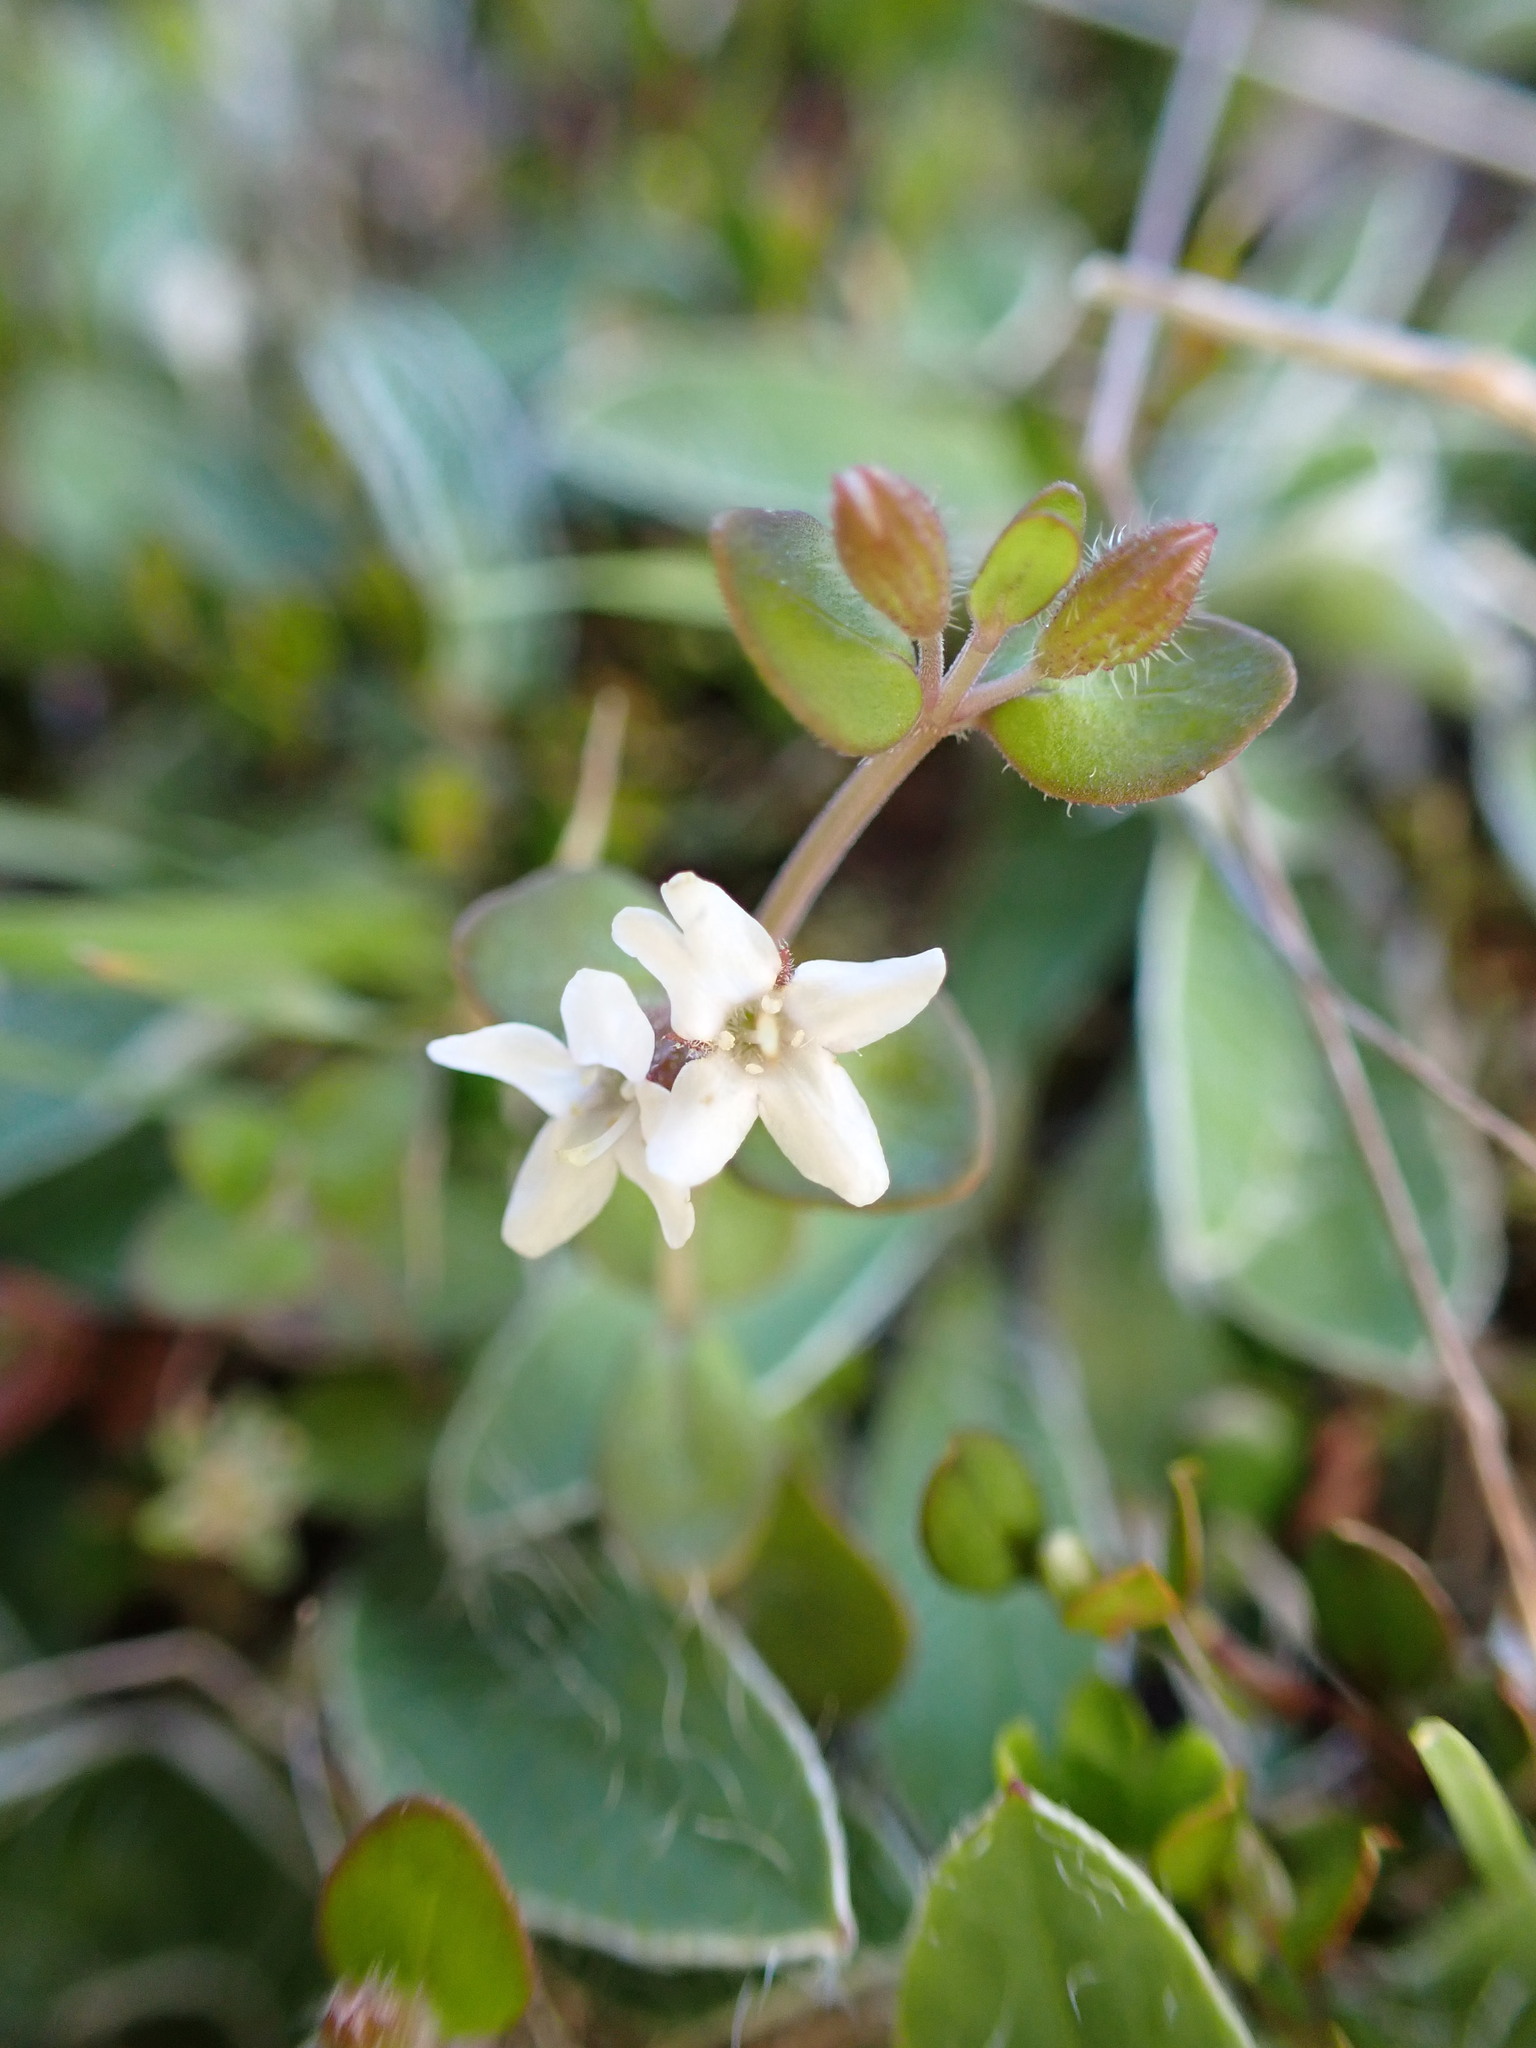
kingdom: Plantae
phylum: Tracheophyta
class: Magnoliopsida
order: Lamiales
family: Lamiaceae
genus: Mentha
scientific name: Mentha cunninghamii
